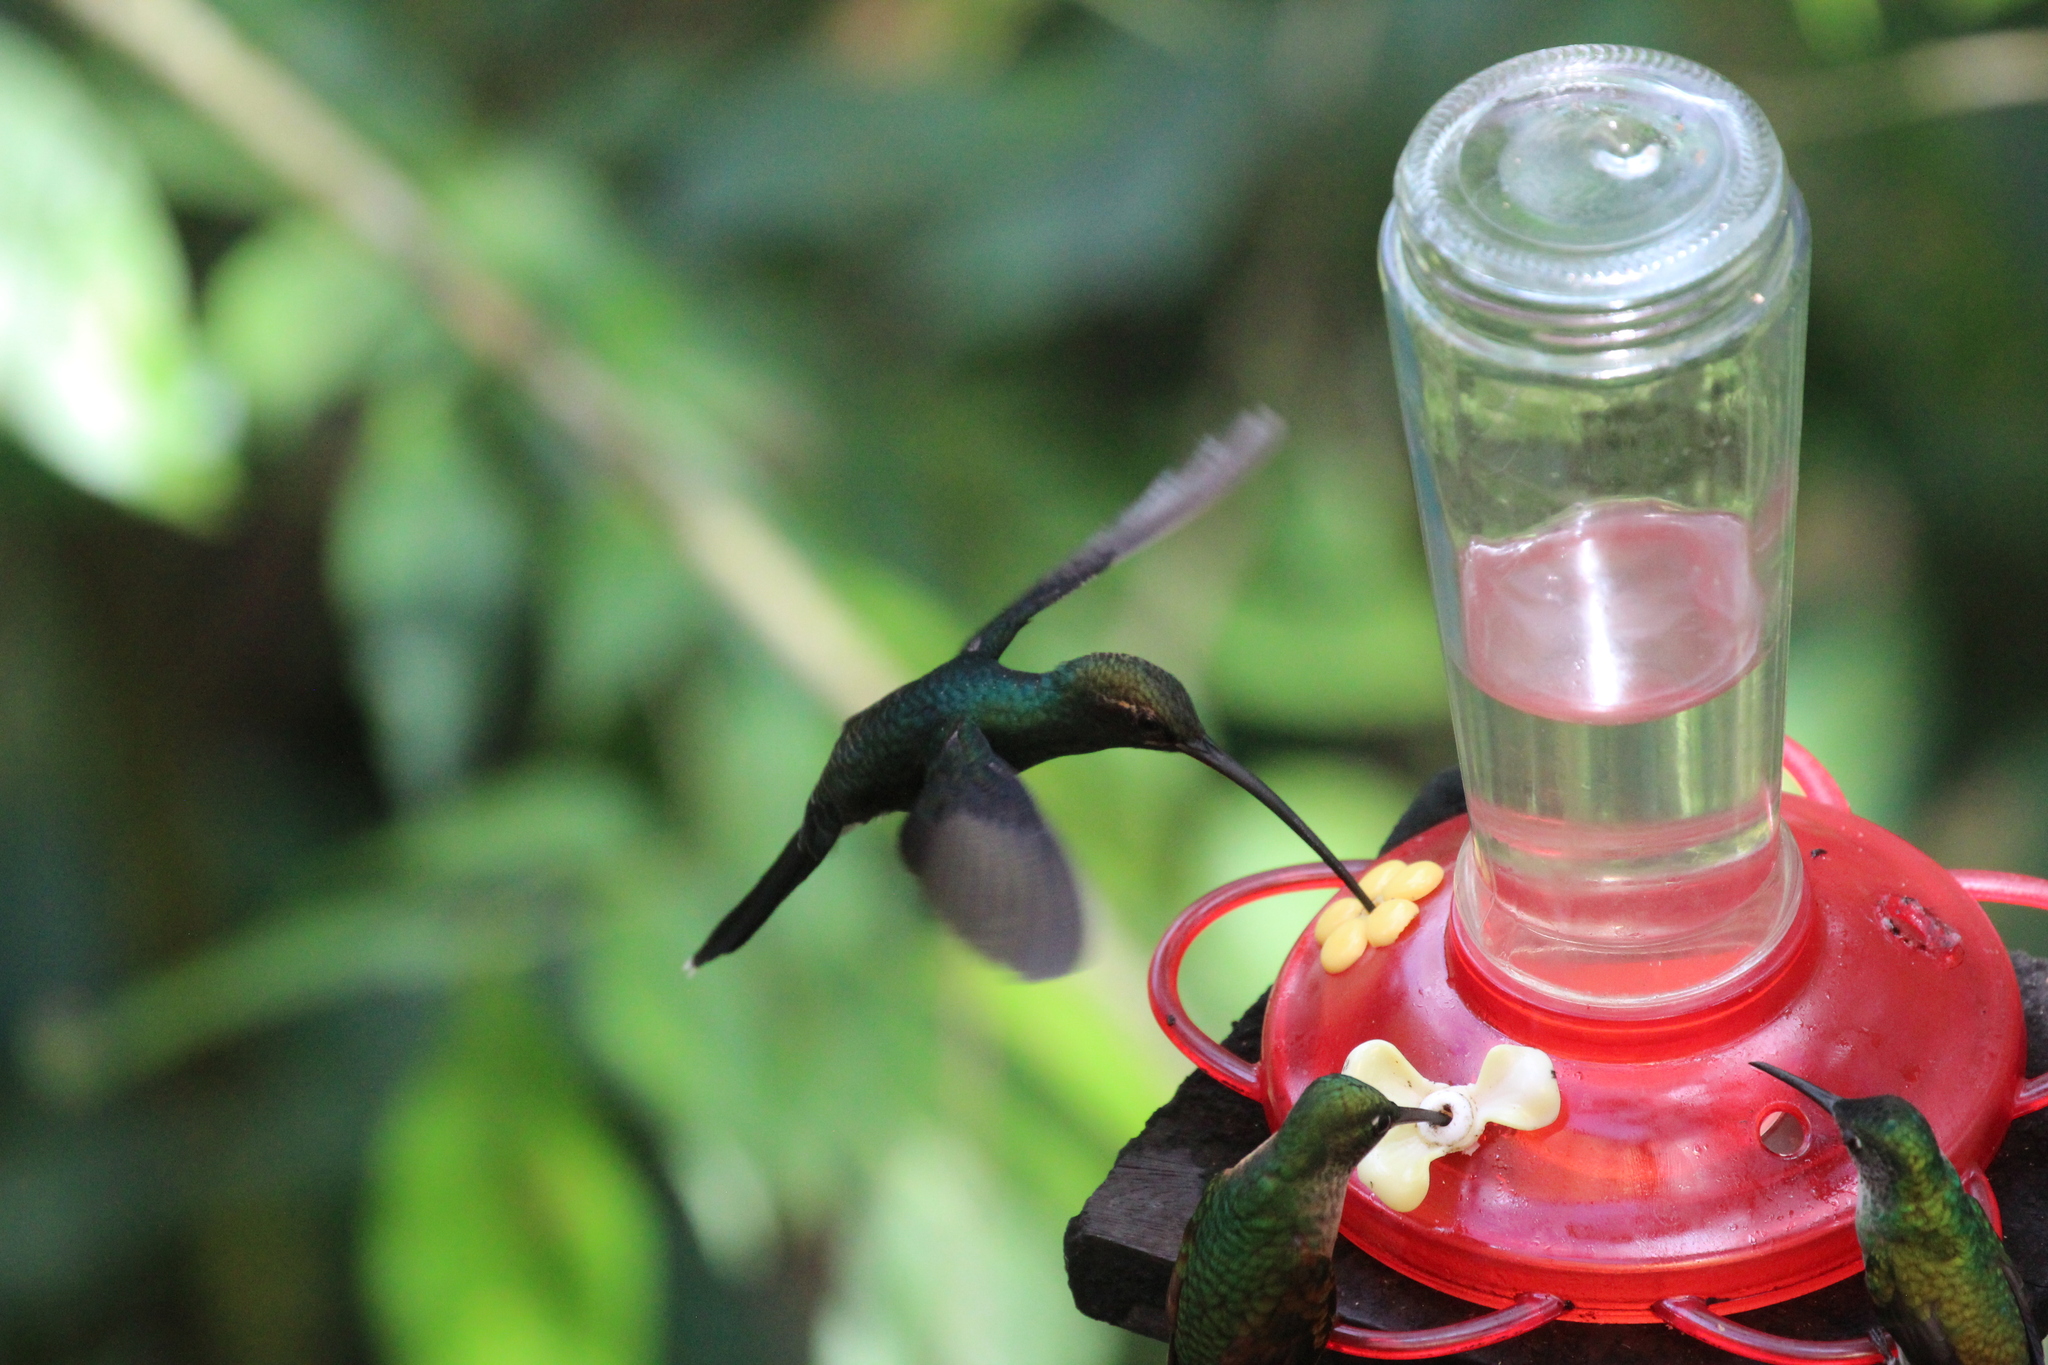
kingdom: Animalia
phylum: Chordata
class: Aves
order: Apodiformes
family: Trochilidae
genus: Phaethornis
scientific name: Phaethornis yaruqui
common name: White-whiskered hermit
